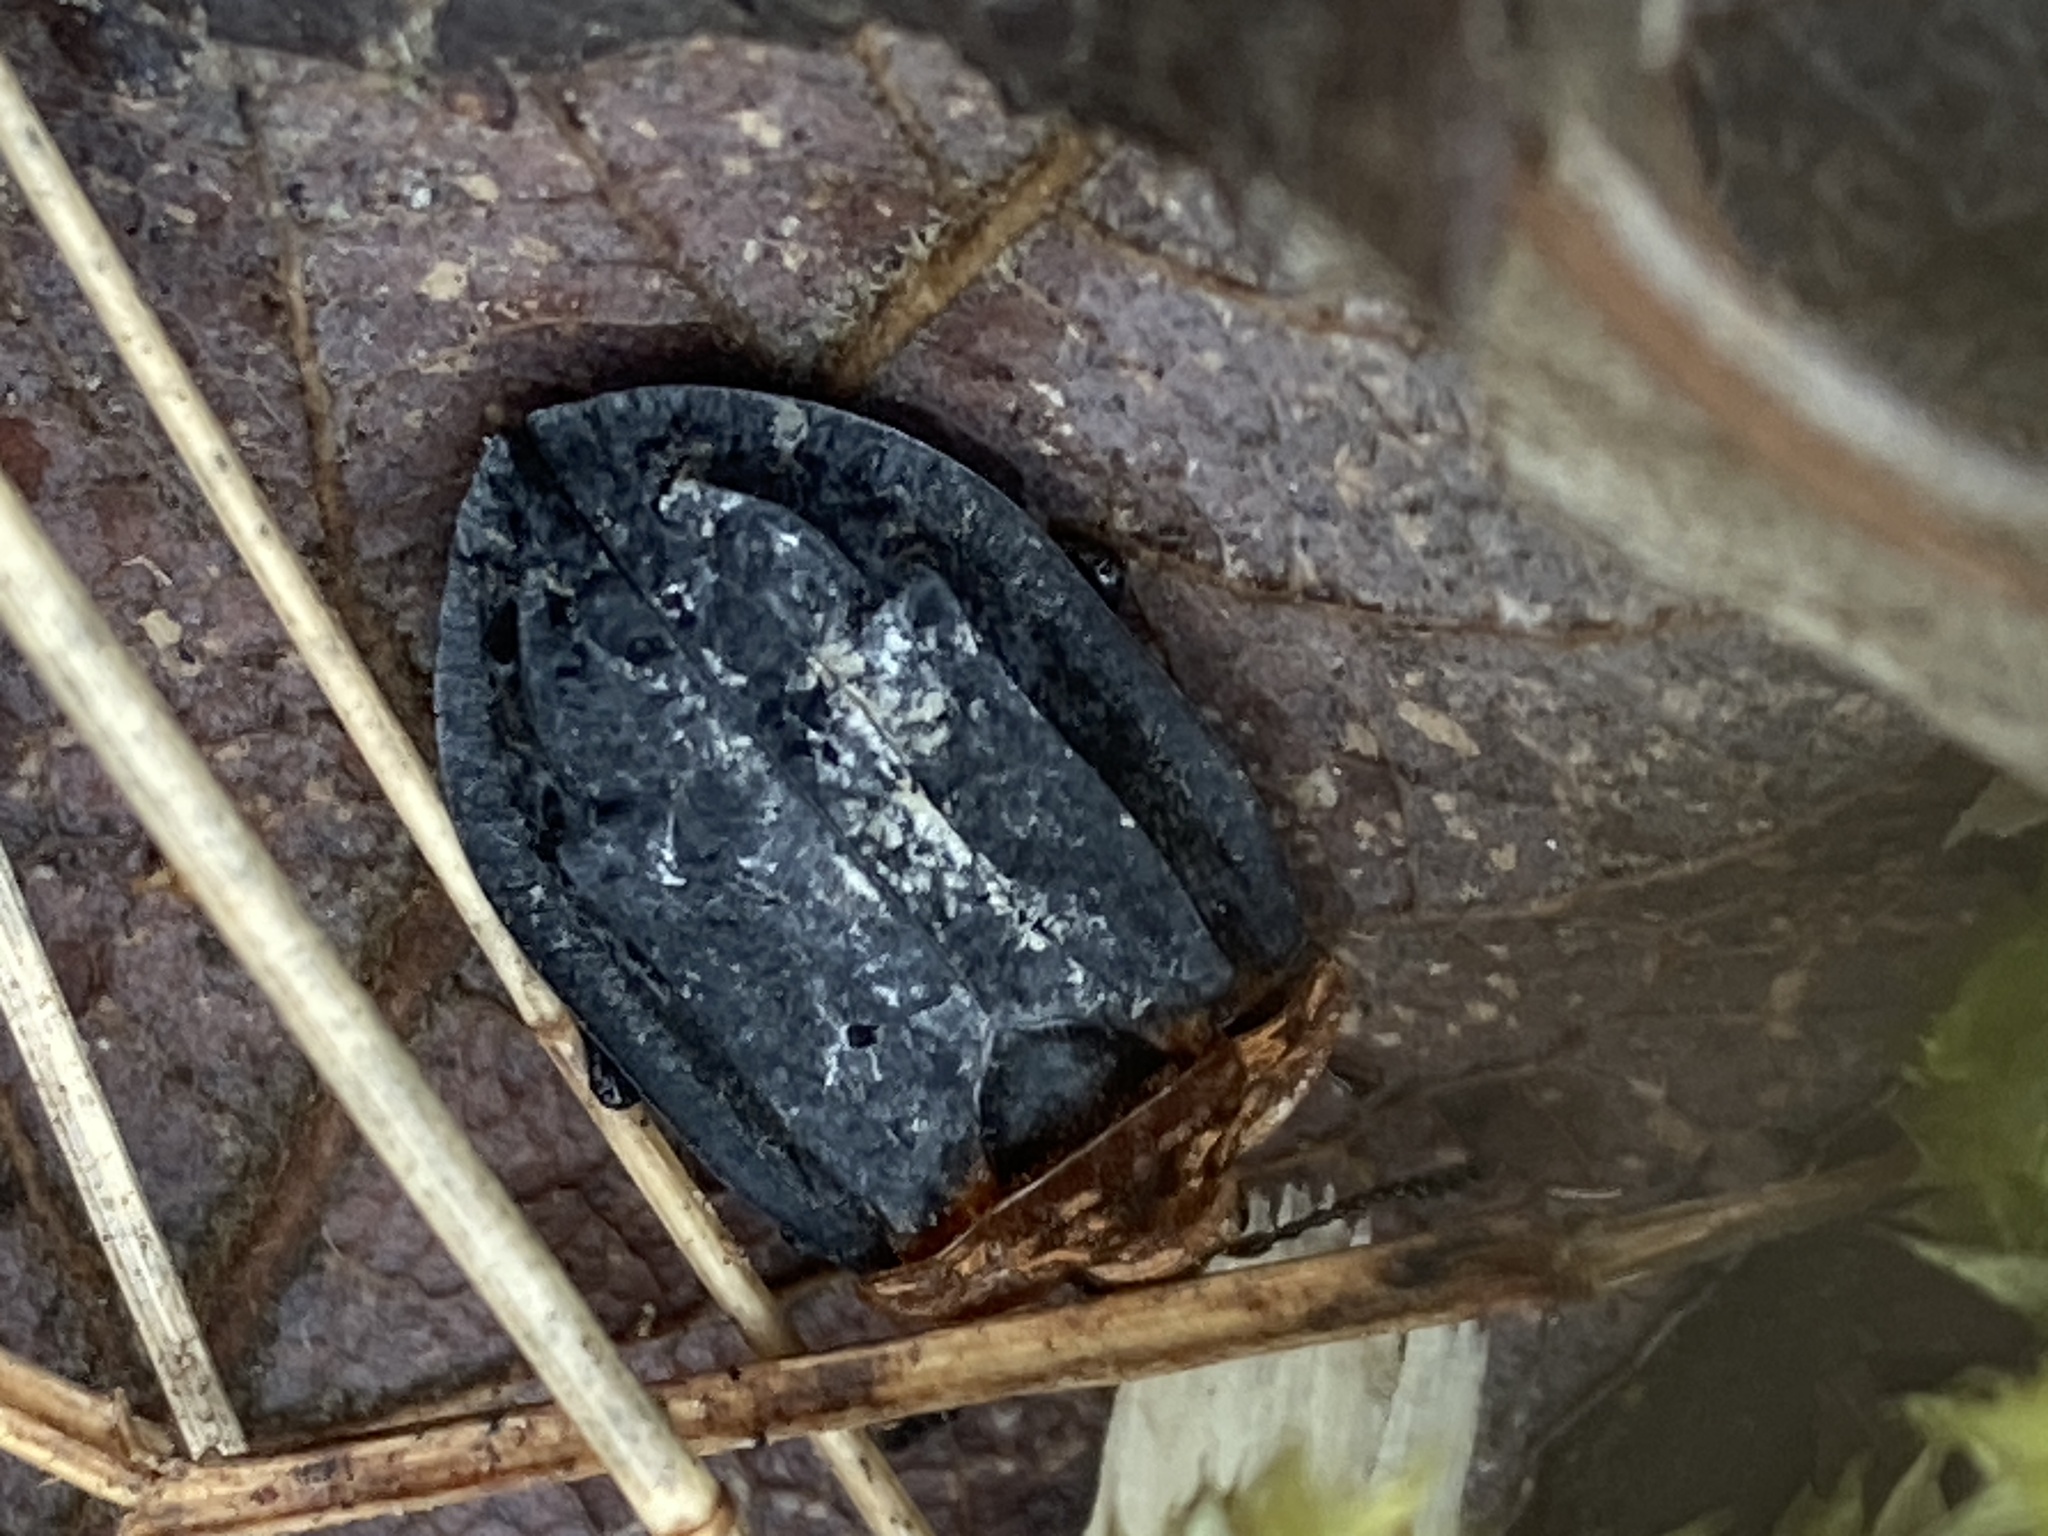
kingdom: Animalia
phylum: Arthropoda
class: Insecta
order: Coleoptera
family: Staphylinidae
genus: Oiceoptoma
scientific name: Oiceoptoma thoracicum
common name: Red-breasted carrion beetle
